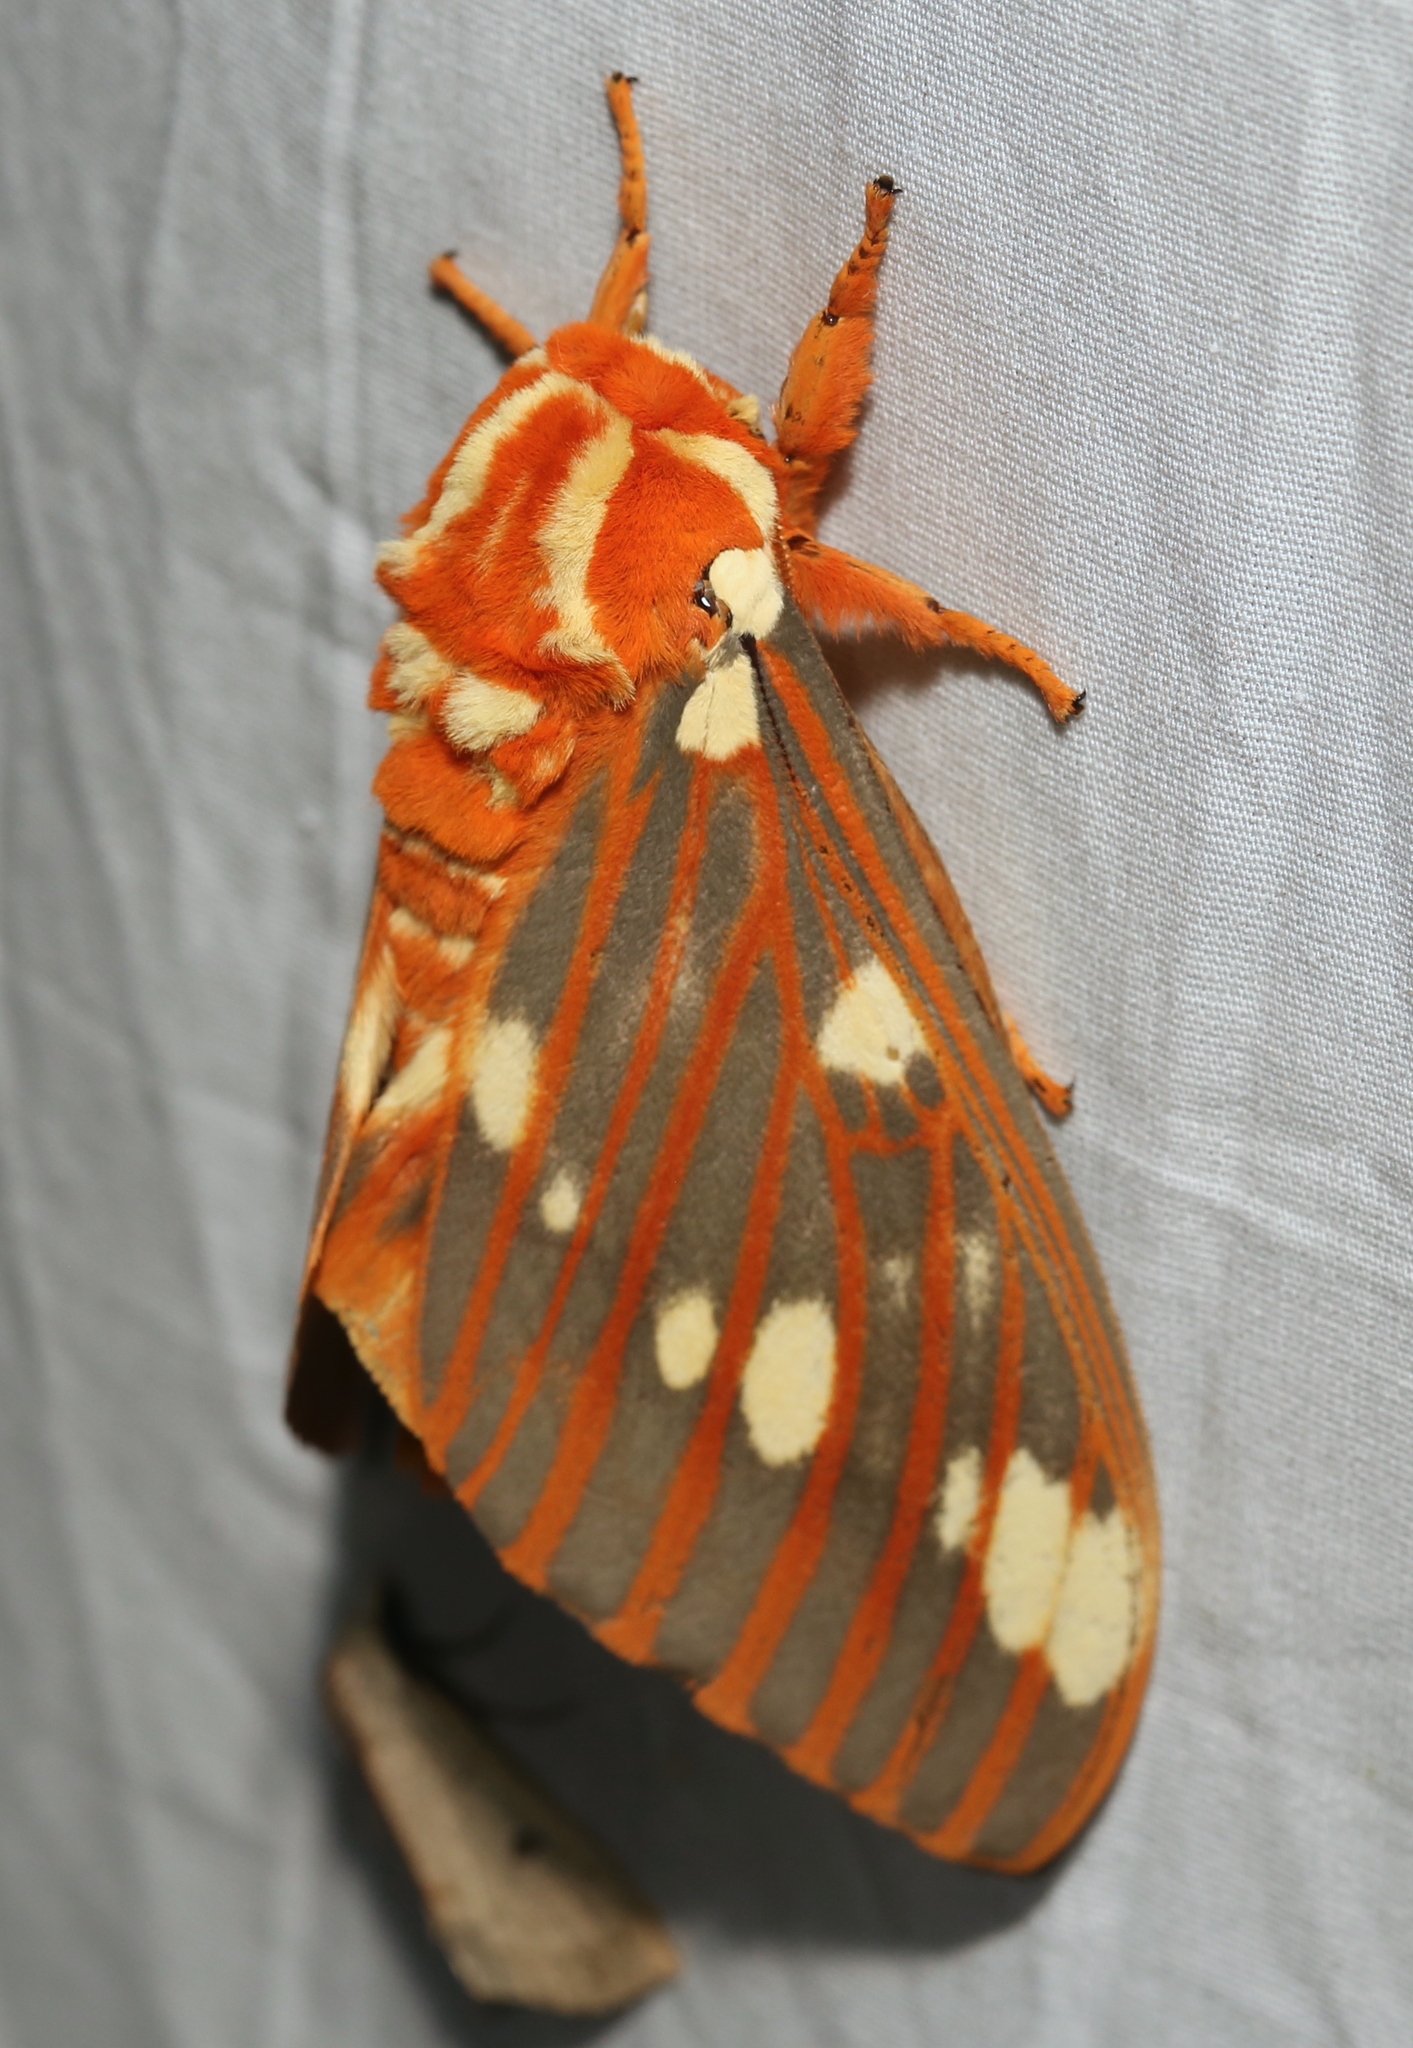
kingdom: Animalia
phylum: Arthropoda
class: Insecta
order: Lepidoptera
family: Saturniidae
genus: Citheronia
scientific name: Citheronia regalis
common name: Hickory horned devil
